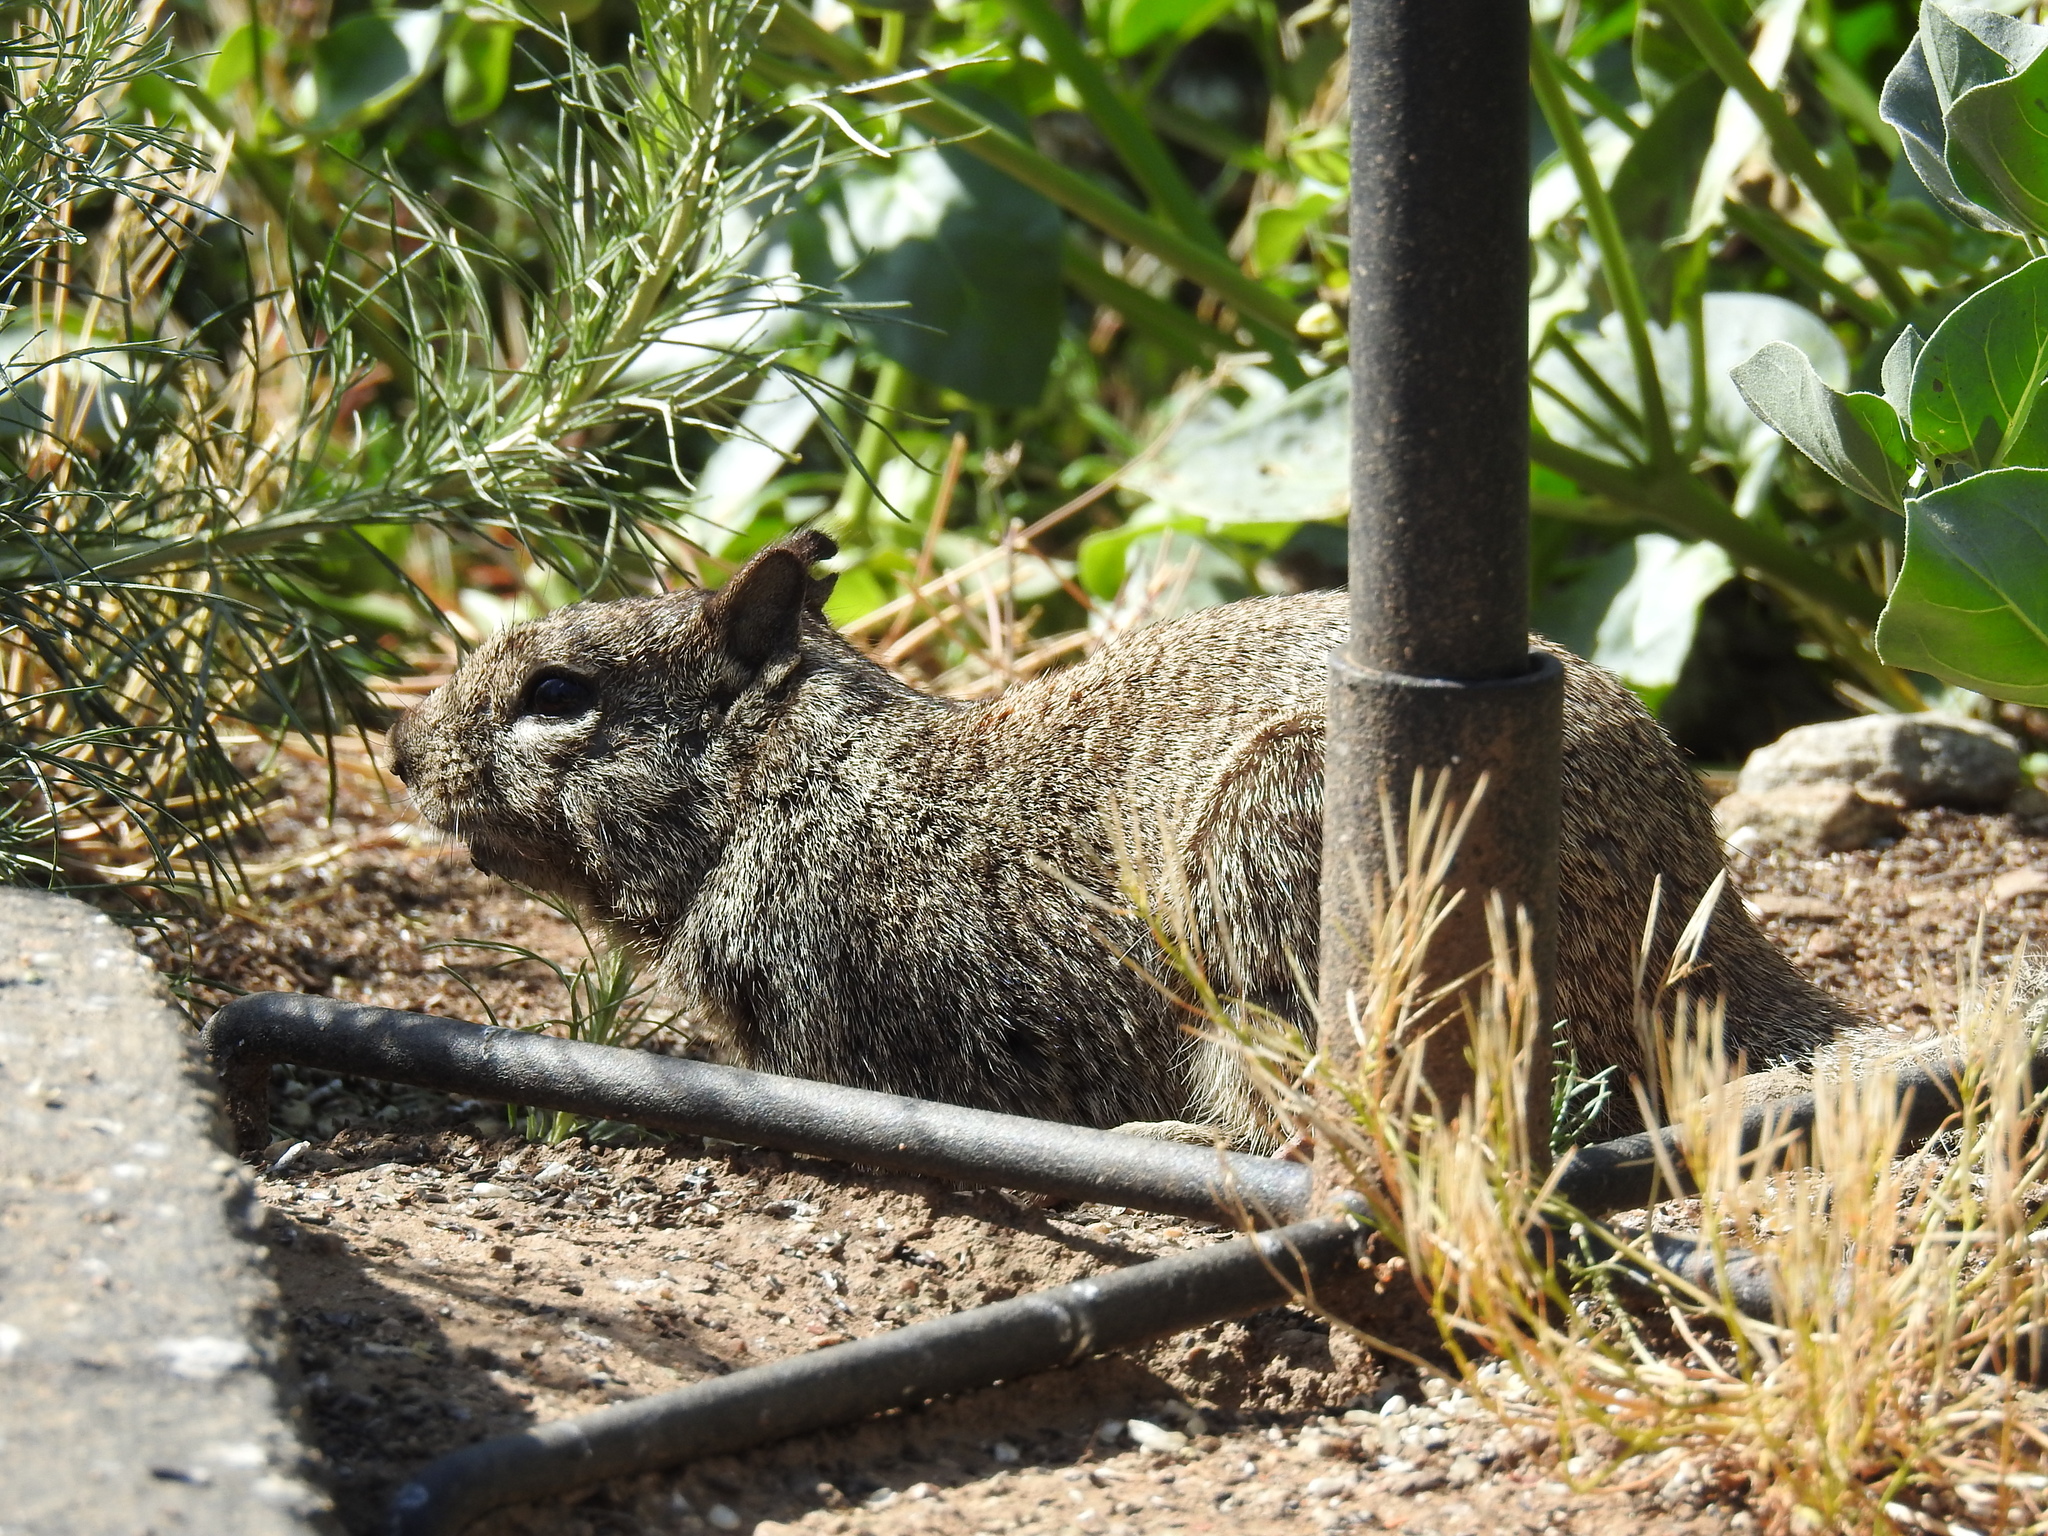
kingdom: Animalia
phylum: Chordata
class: Mammalia
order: Rodentia
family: Sciuridae
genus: Otospermophilus
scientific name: Otospermophilus beecheyi
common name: California ground squirrel
